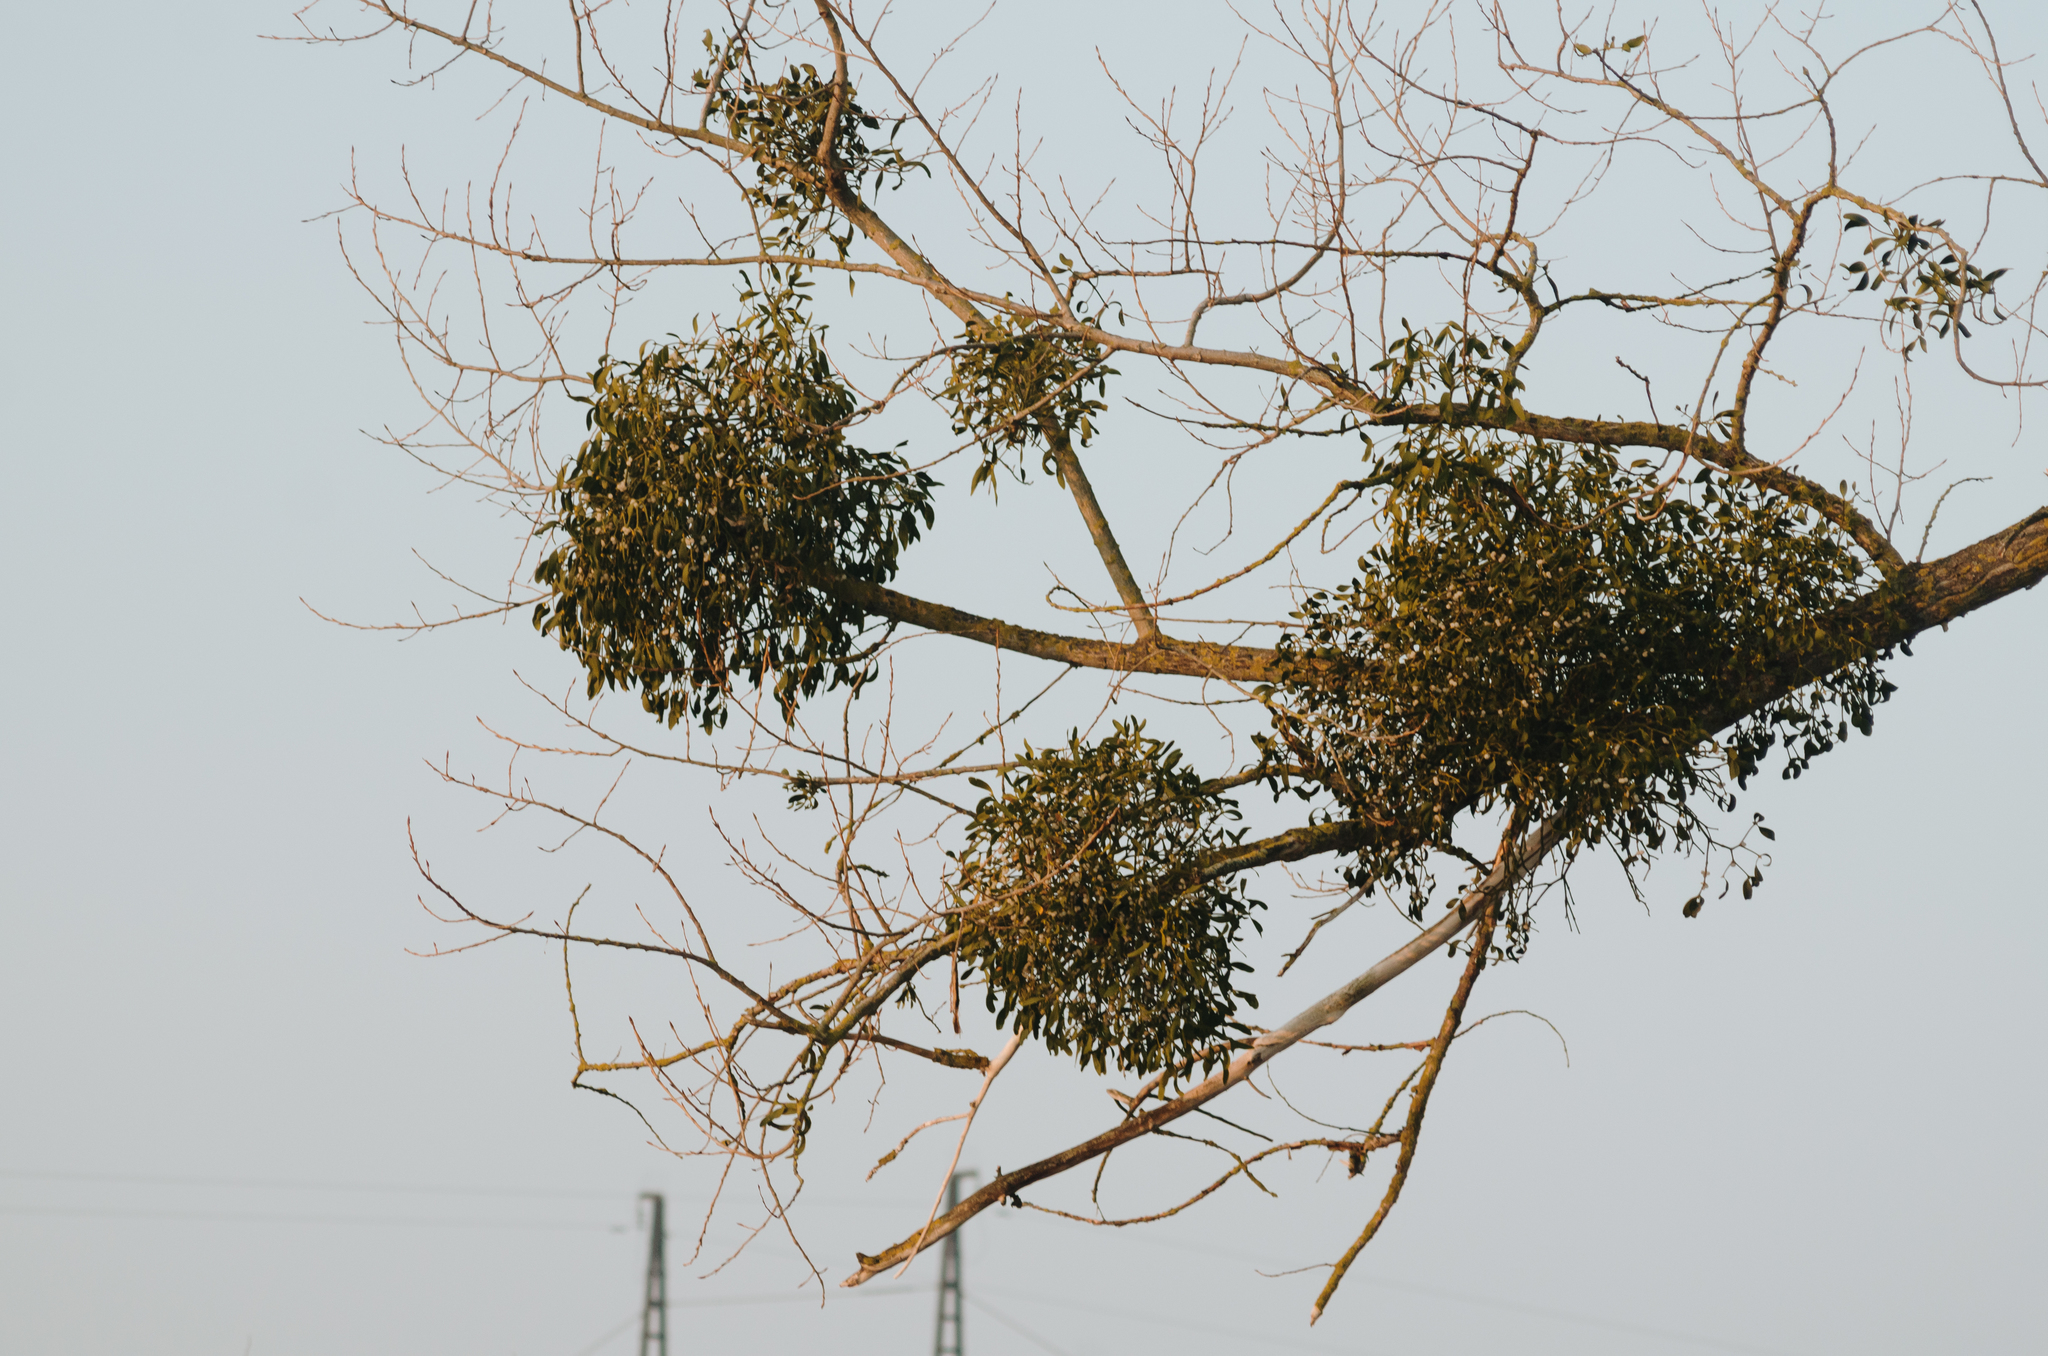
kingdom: Plantae
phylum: Tracheophyta
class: Magnoliopsida
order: Santalales
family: Viscaceae
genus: Viscum
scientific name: Viscum album
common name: Mistletoe
